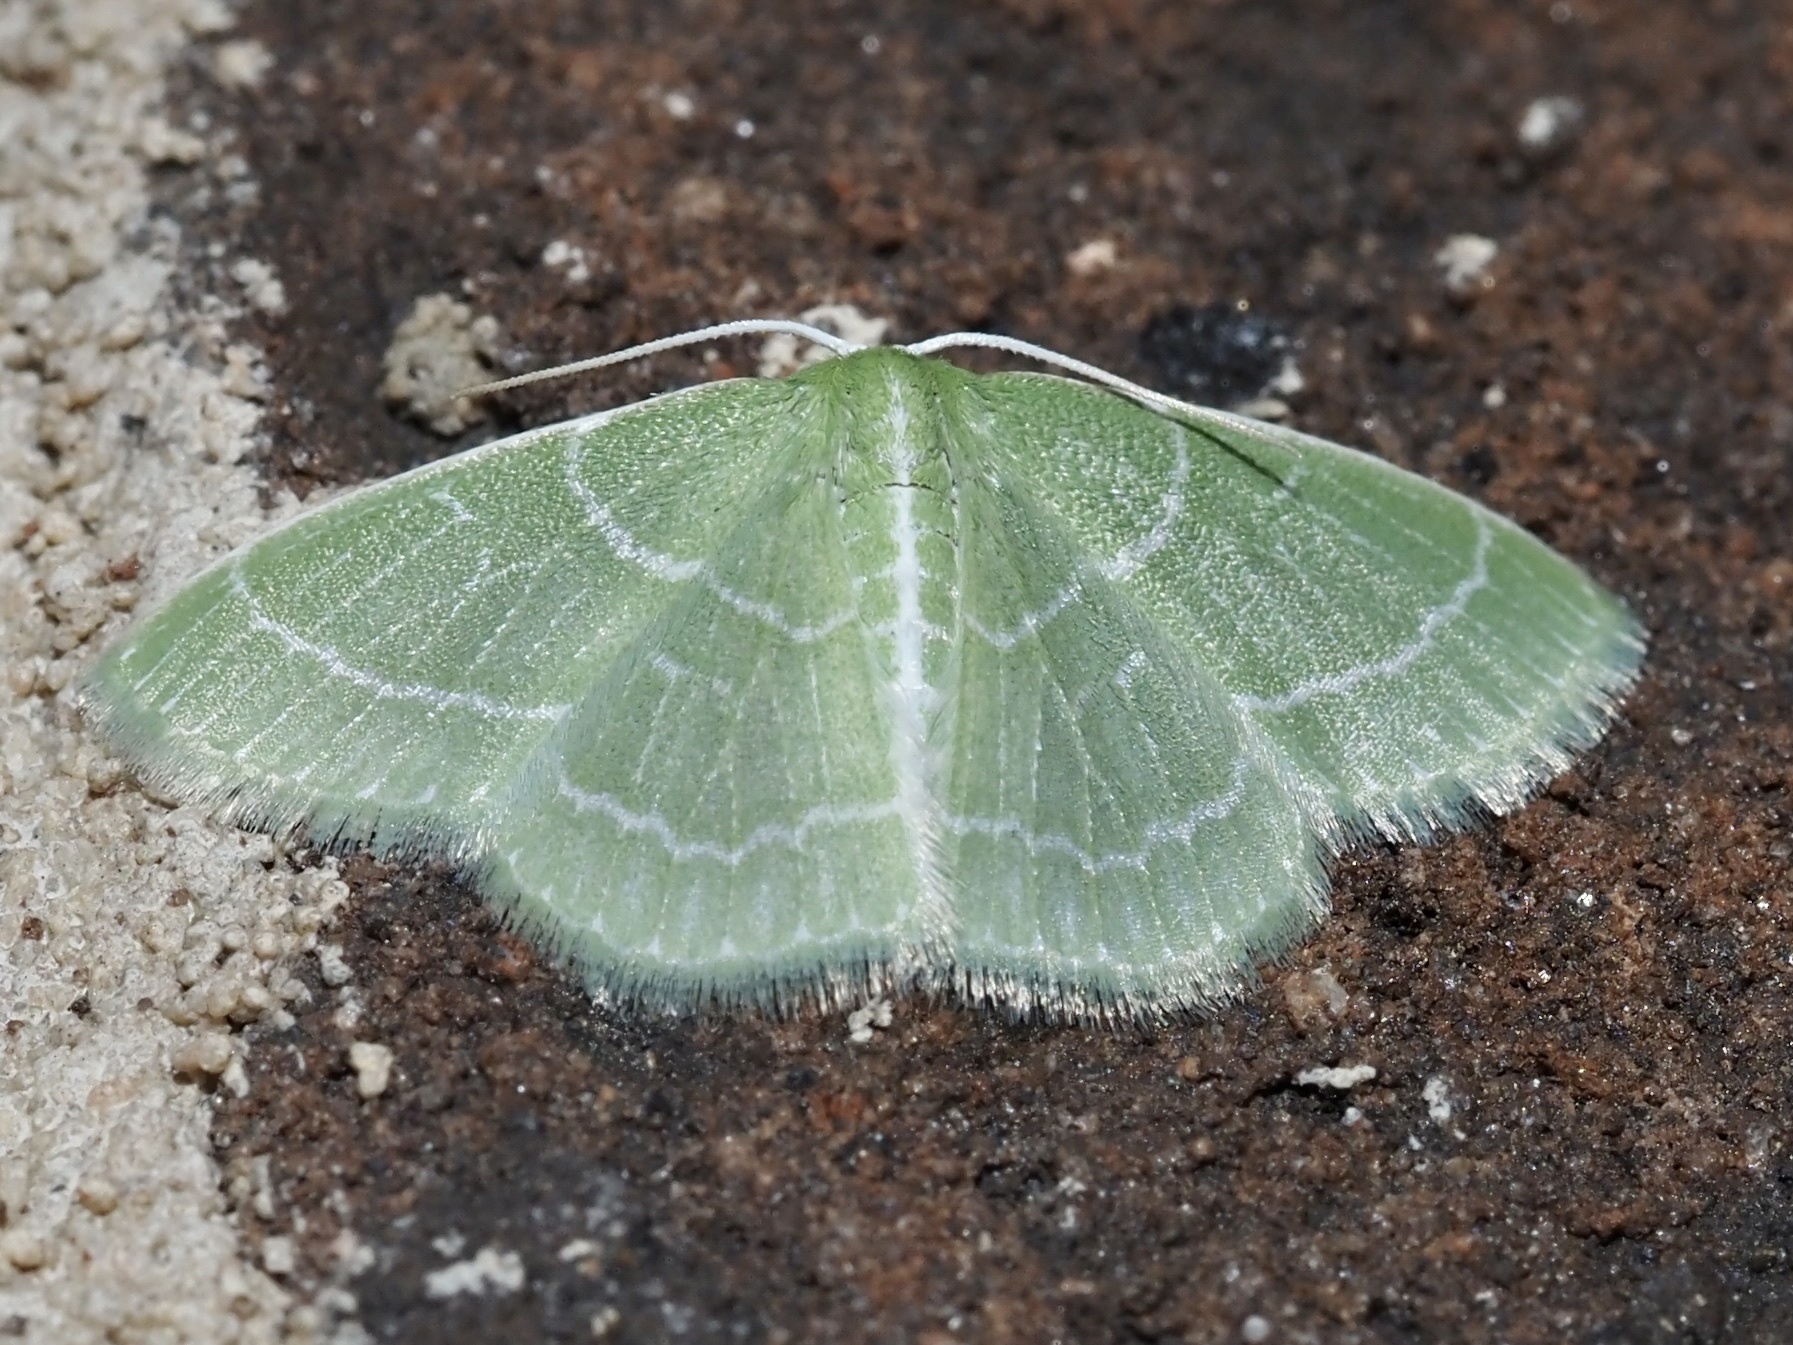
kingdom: Animalia
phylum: Arthropoda
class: Insecta
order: Lepidoptera
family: Geometridae
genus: Synchlora
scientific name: Synchlora aerata
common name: Wavy-lined emerald
